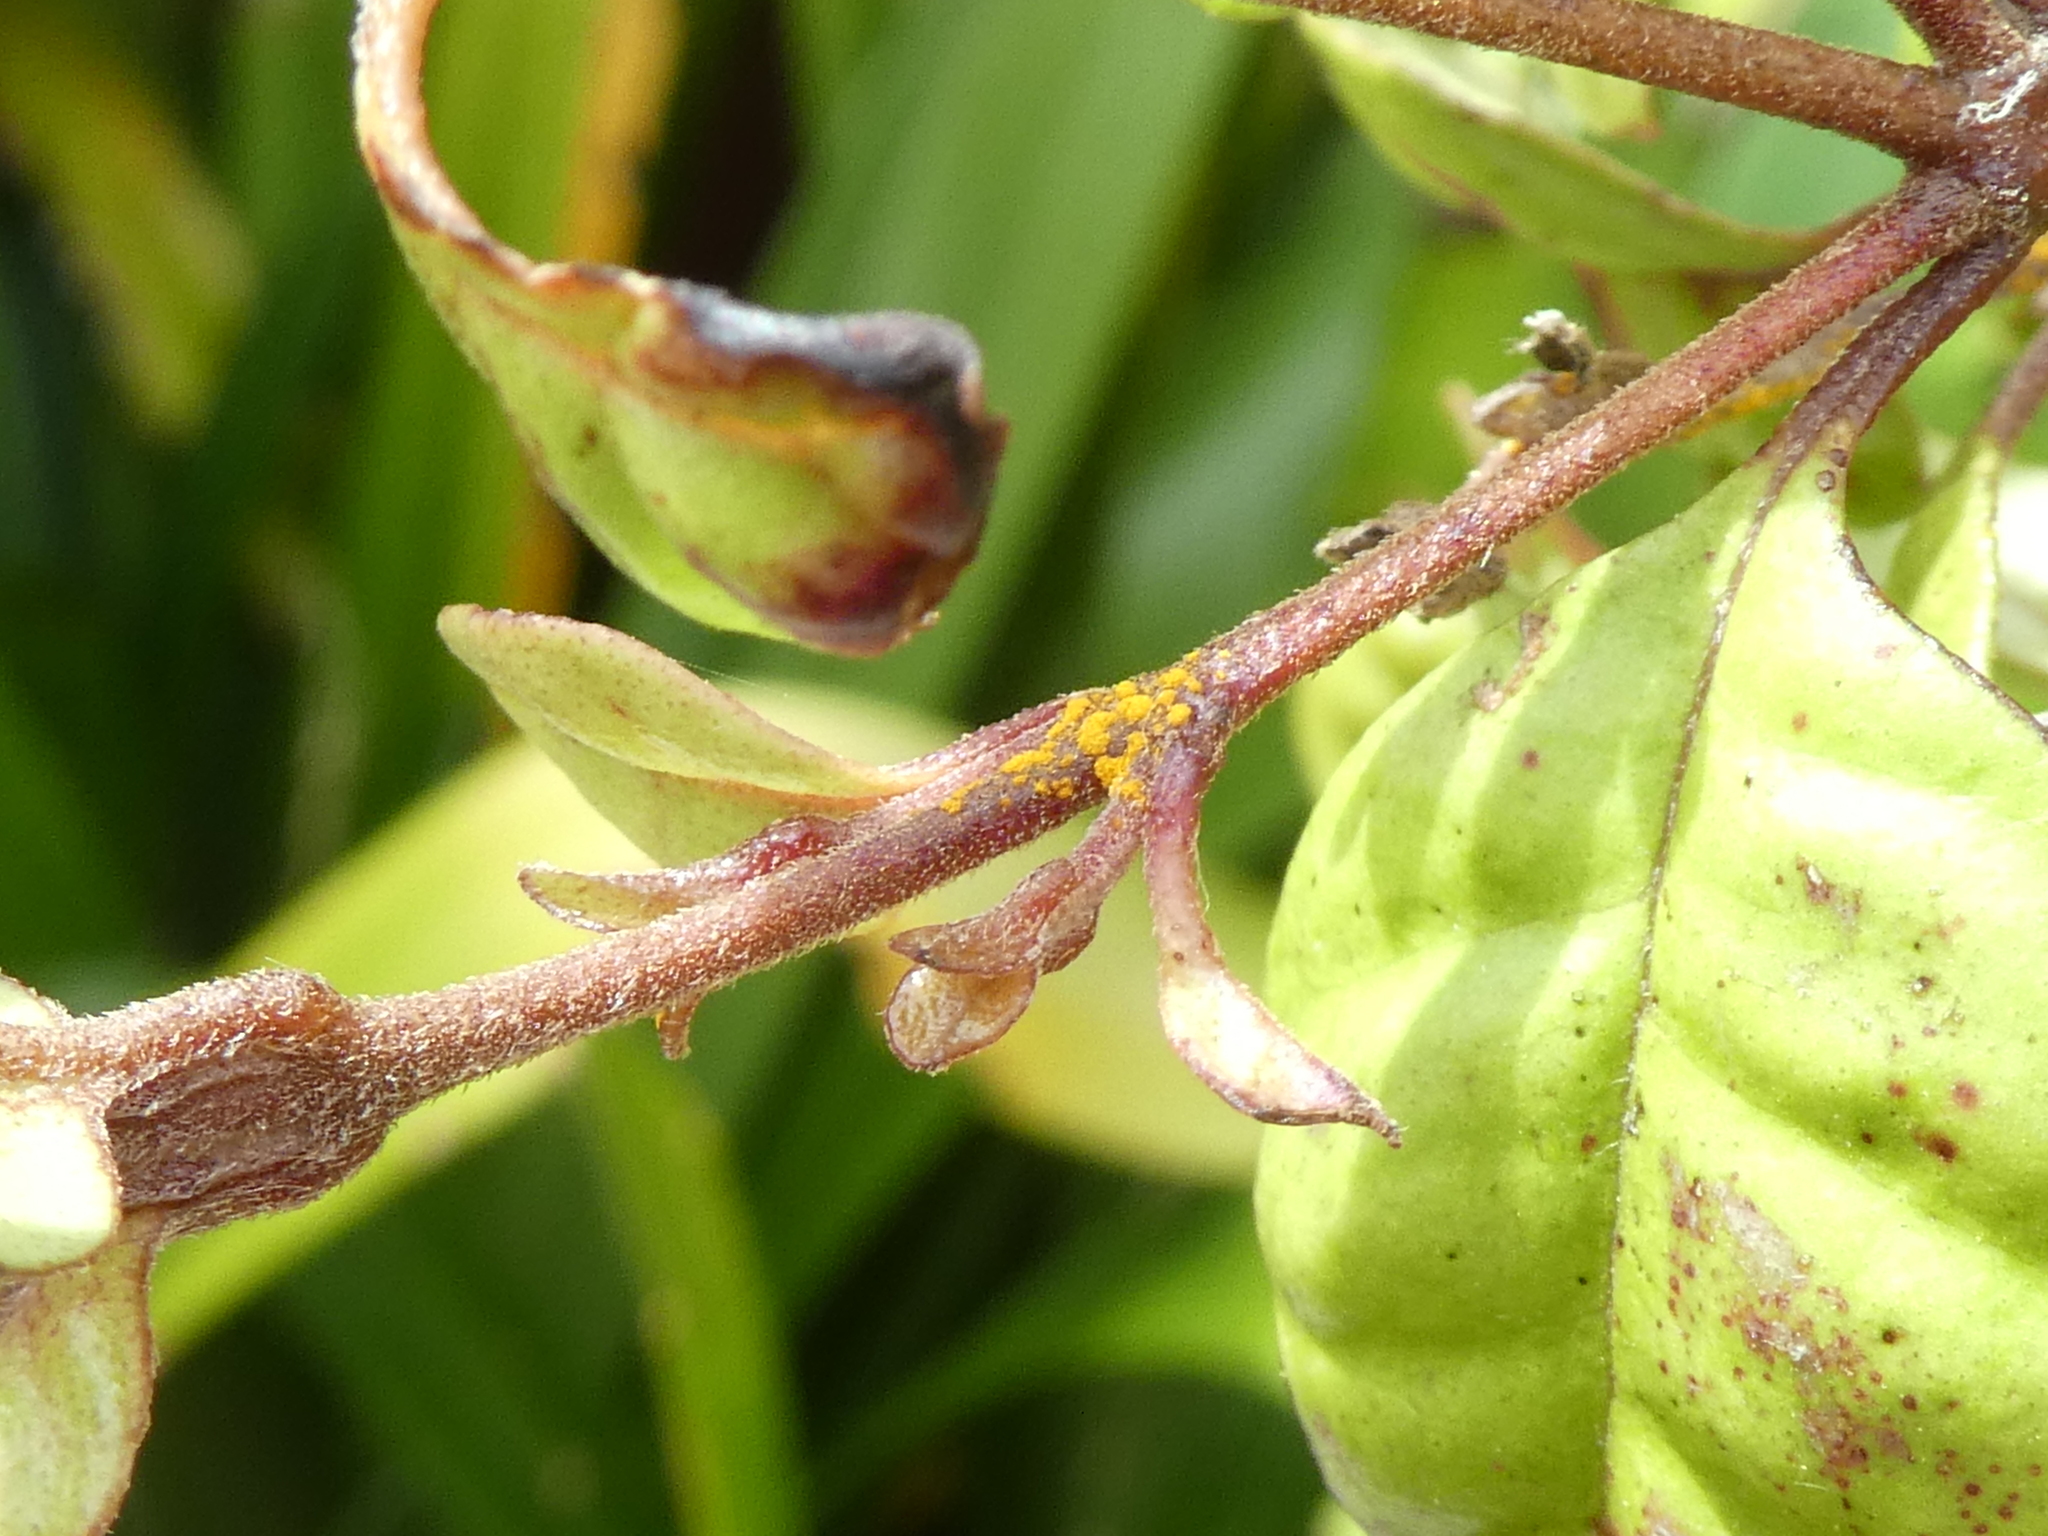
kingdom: Fungi
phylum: Basidiomycota
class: Pucciniomycetes
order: Pucciniales
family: Sphaerophragmiaceae
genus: Austropuccinia
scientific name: Austropuccinia psidii
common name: Myrtle rust
